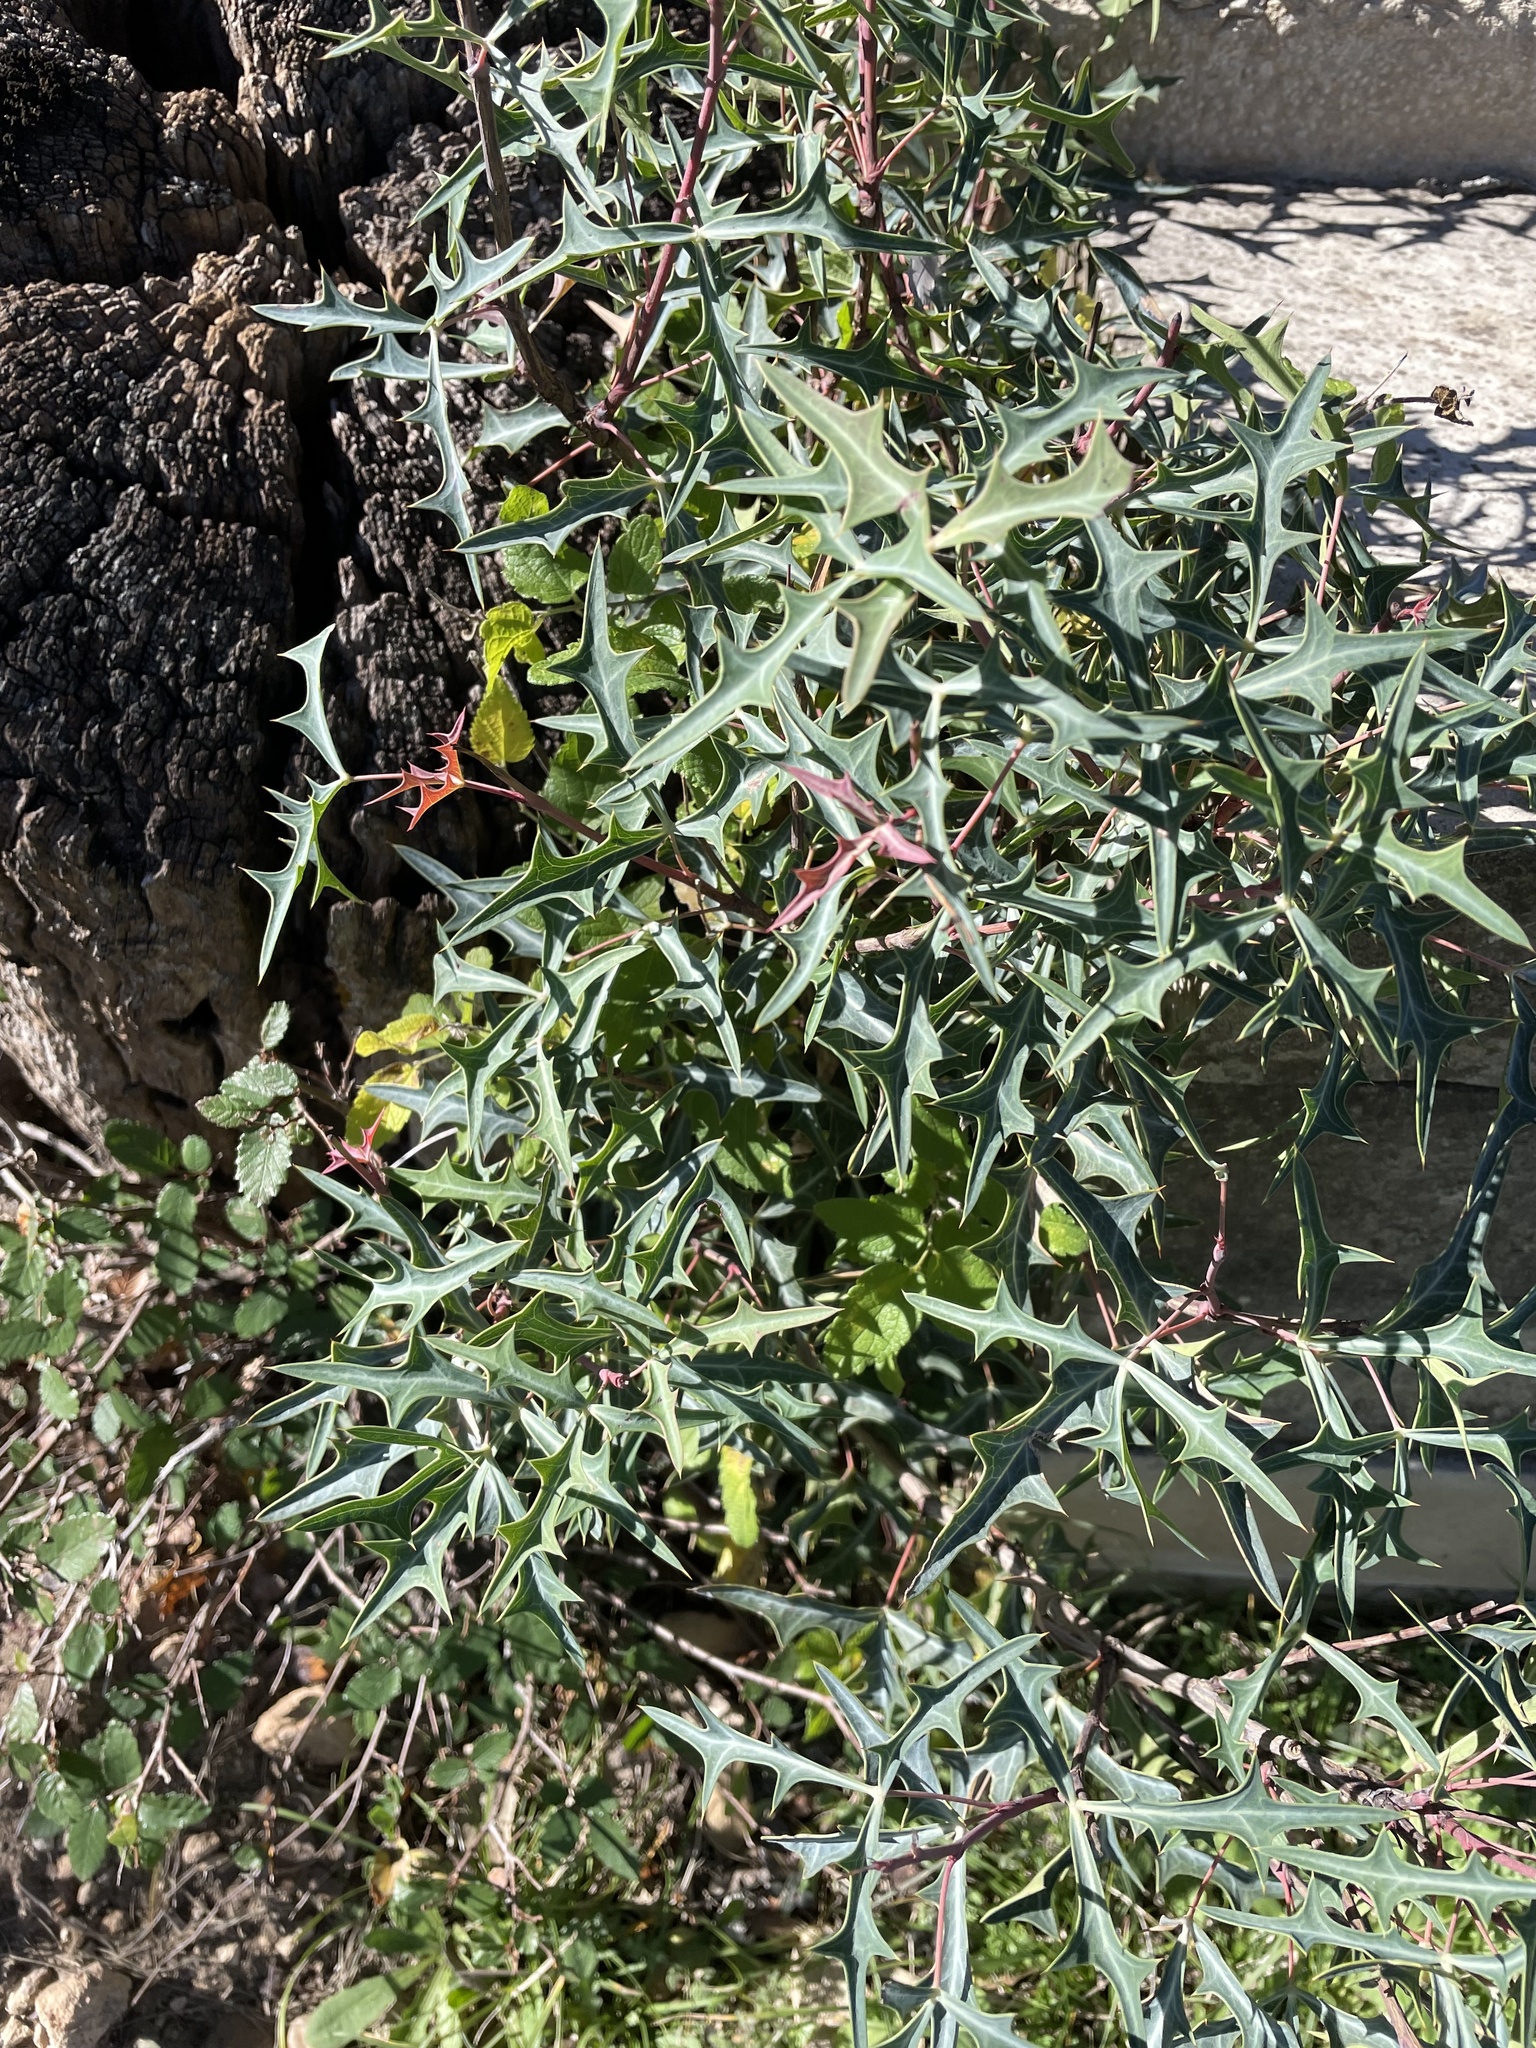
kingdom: Plantae
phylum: Tracheophyta
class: Magnoliopsida
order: Ranunculales
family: Berberidaceae
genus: Alloberberis
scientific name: Alloberberis trifoliolata
